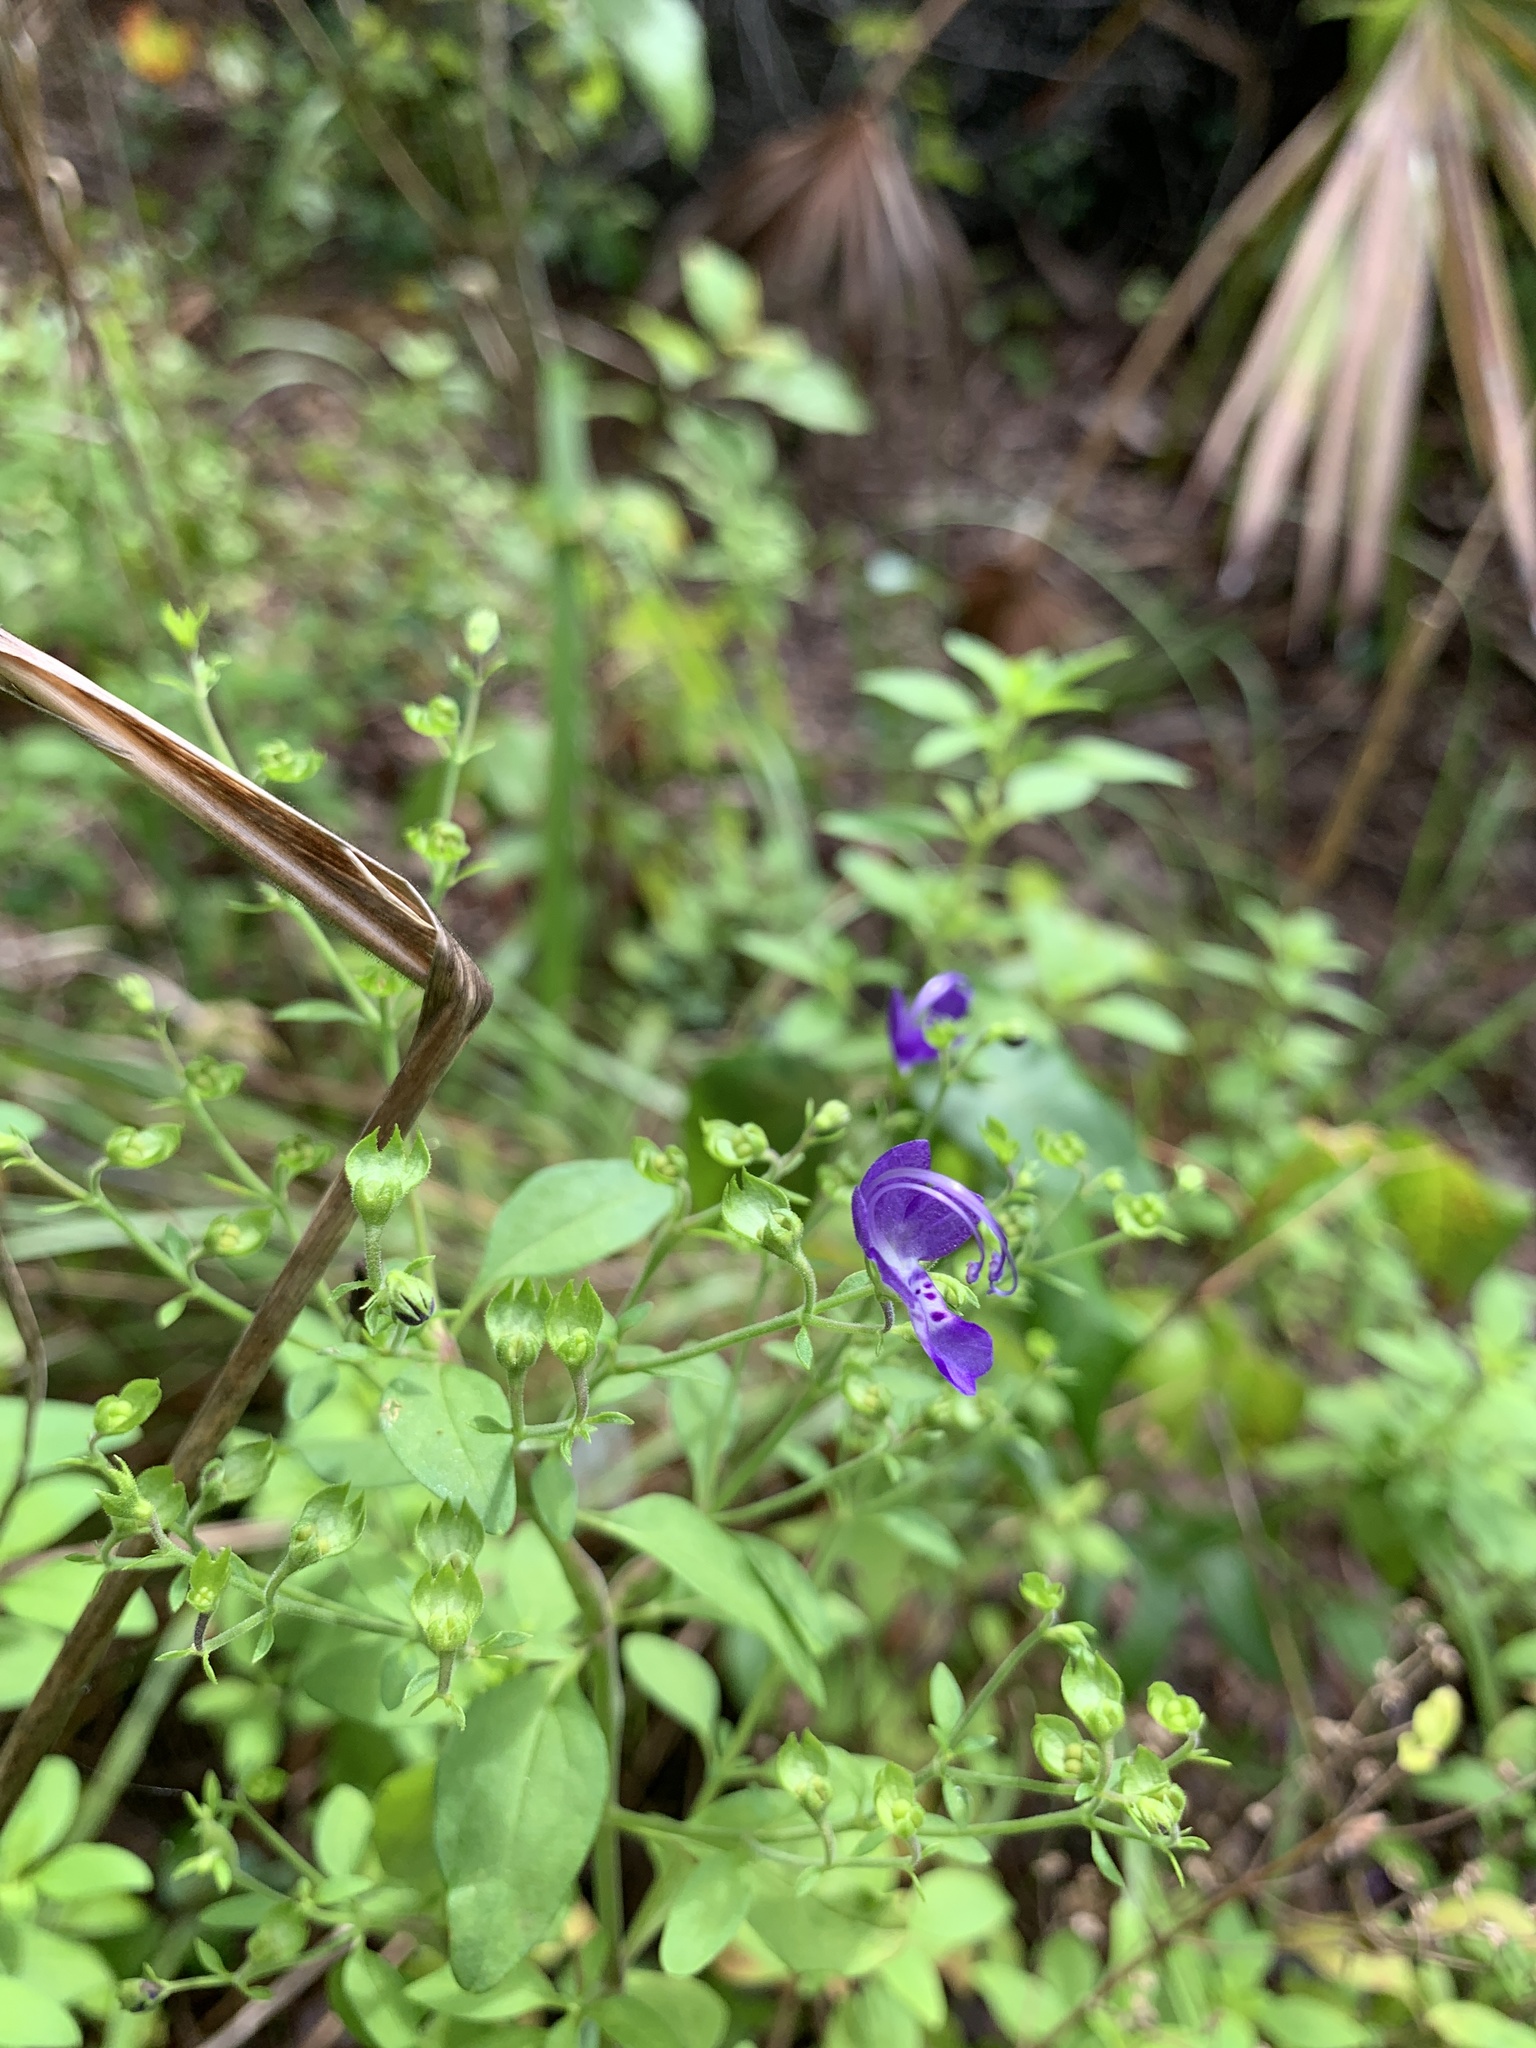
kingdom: Plantae
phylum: Tracheophyta
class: Magnoliopsida
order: Lamiales
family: Lamiaceae
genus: Trichostema
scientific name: Trichostema fruticosum
